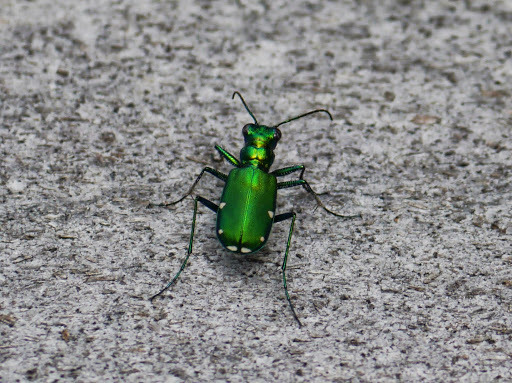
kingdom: Animalia
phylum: Arthropoda
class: Insecta
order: Coleoptera
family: Carabidae
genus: Cicindela
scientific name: Cicindela sexguttata
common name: Six-spotted tiger beetle
